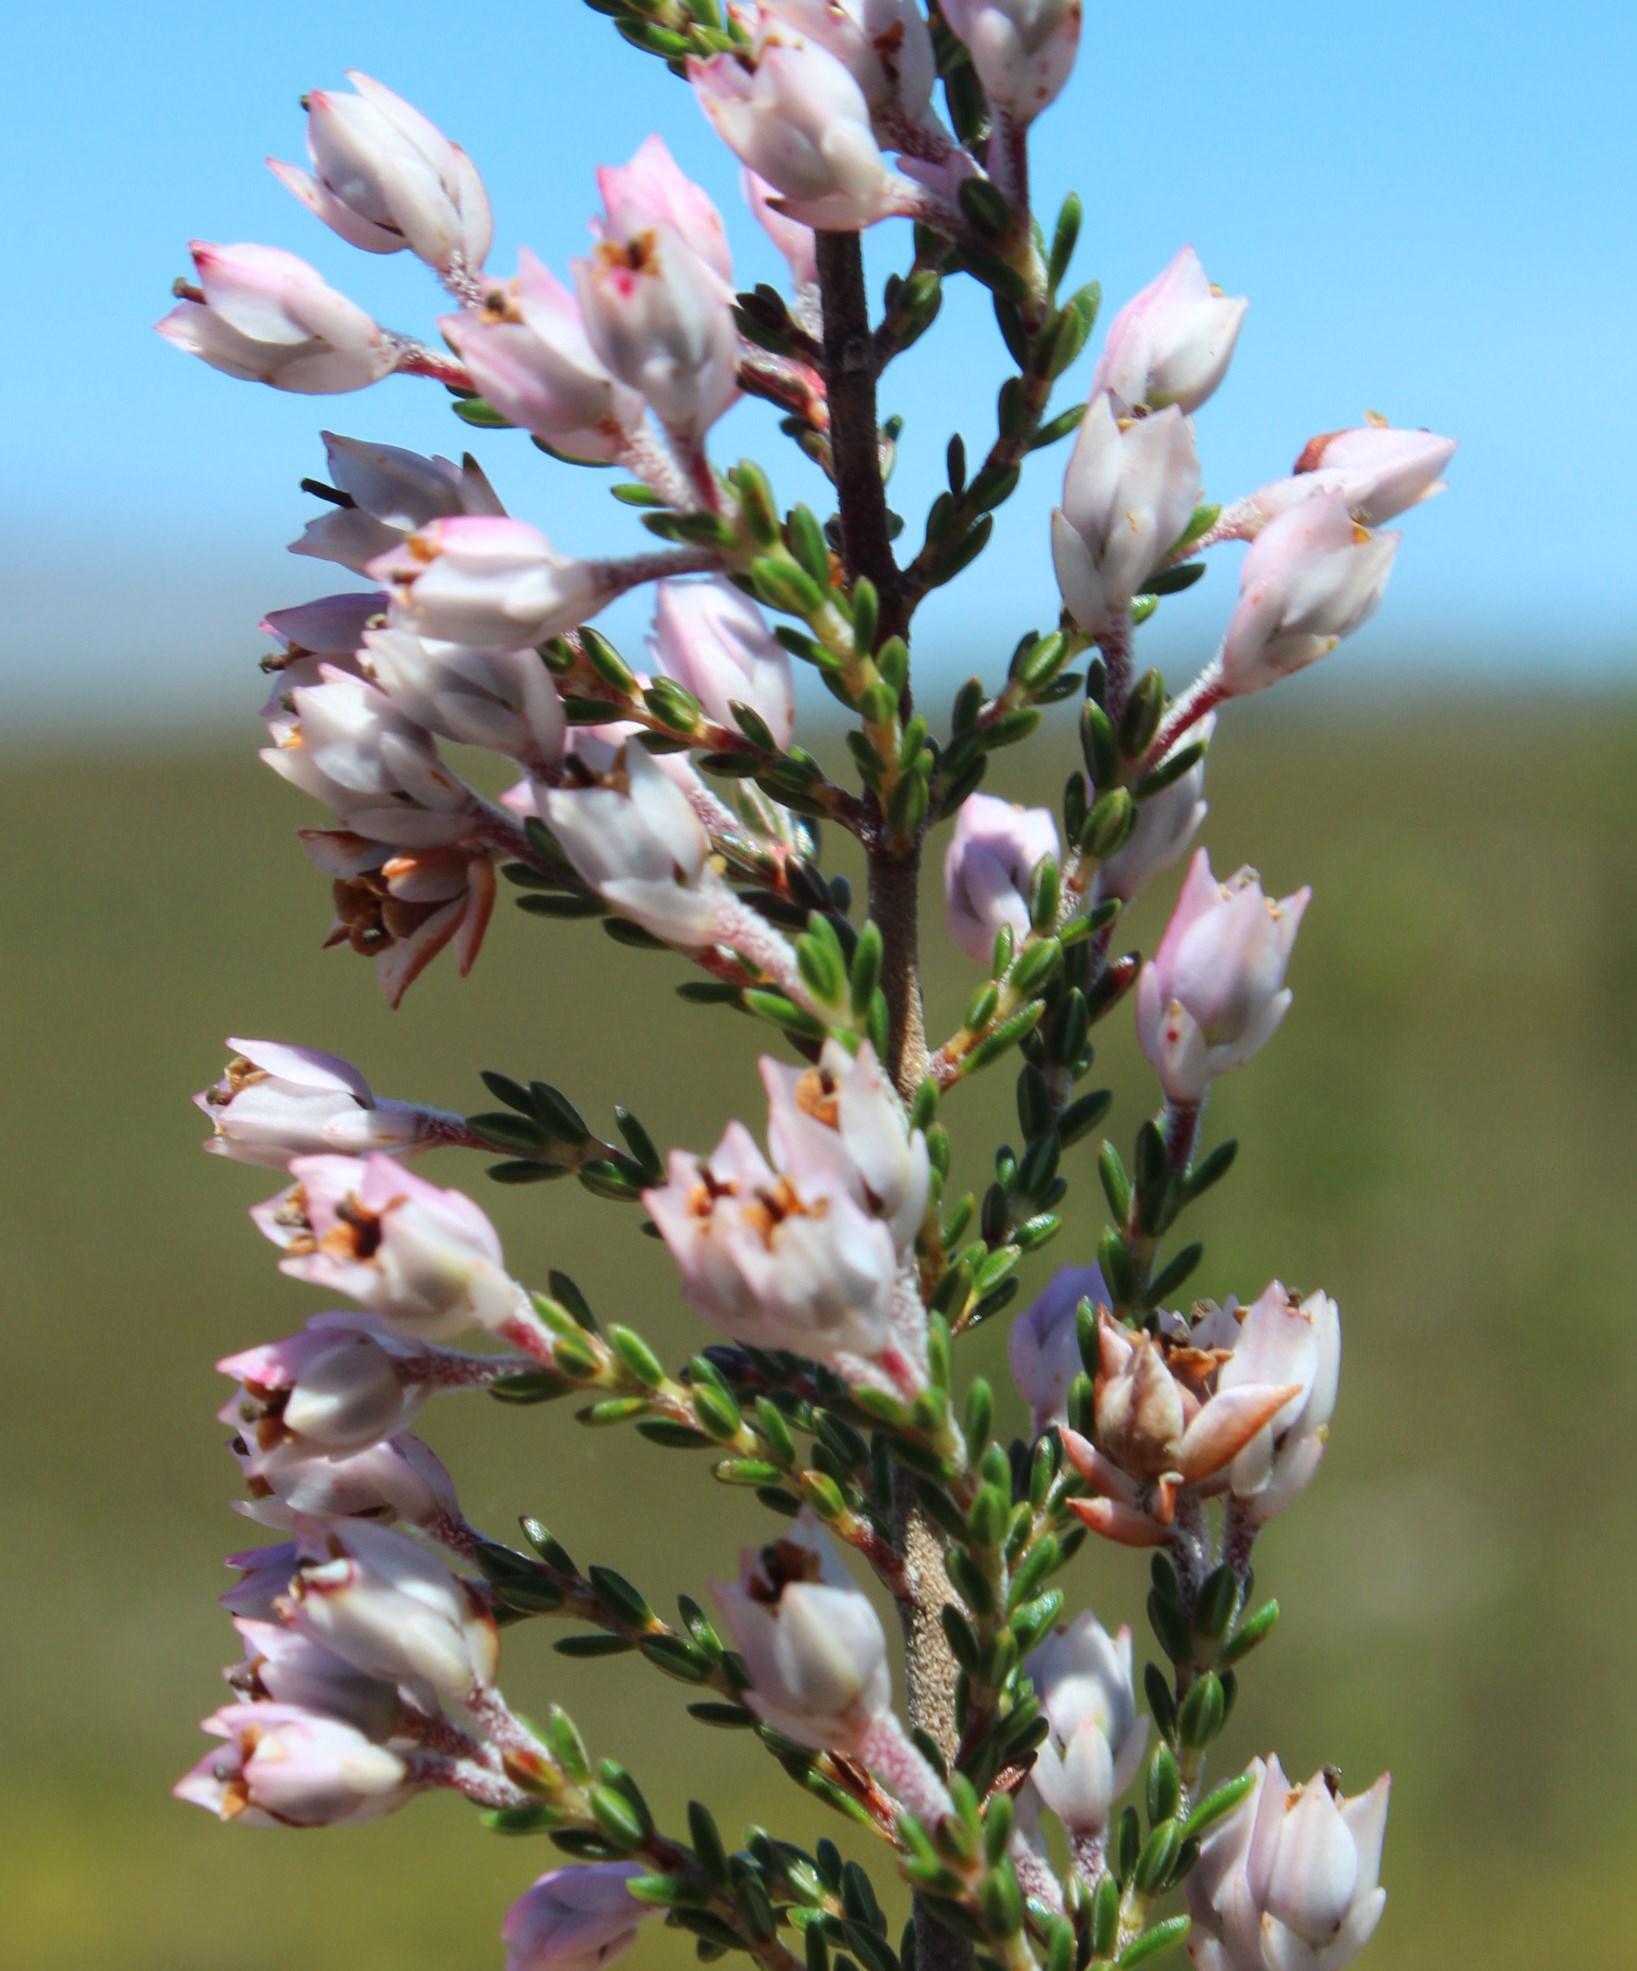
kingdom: Plantae
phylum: Tracheophyta
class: Magnoliopsida
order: Ericales
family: Ericaceae
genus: Erica
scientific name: Erica plumigera
